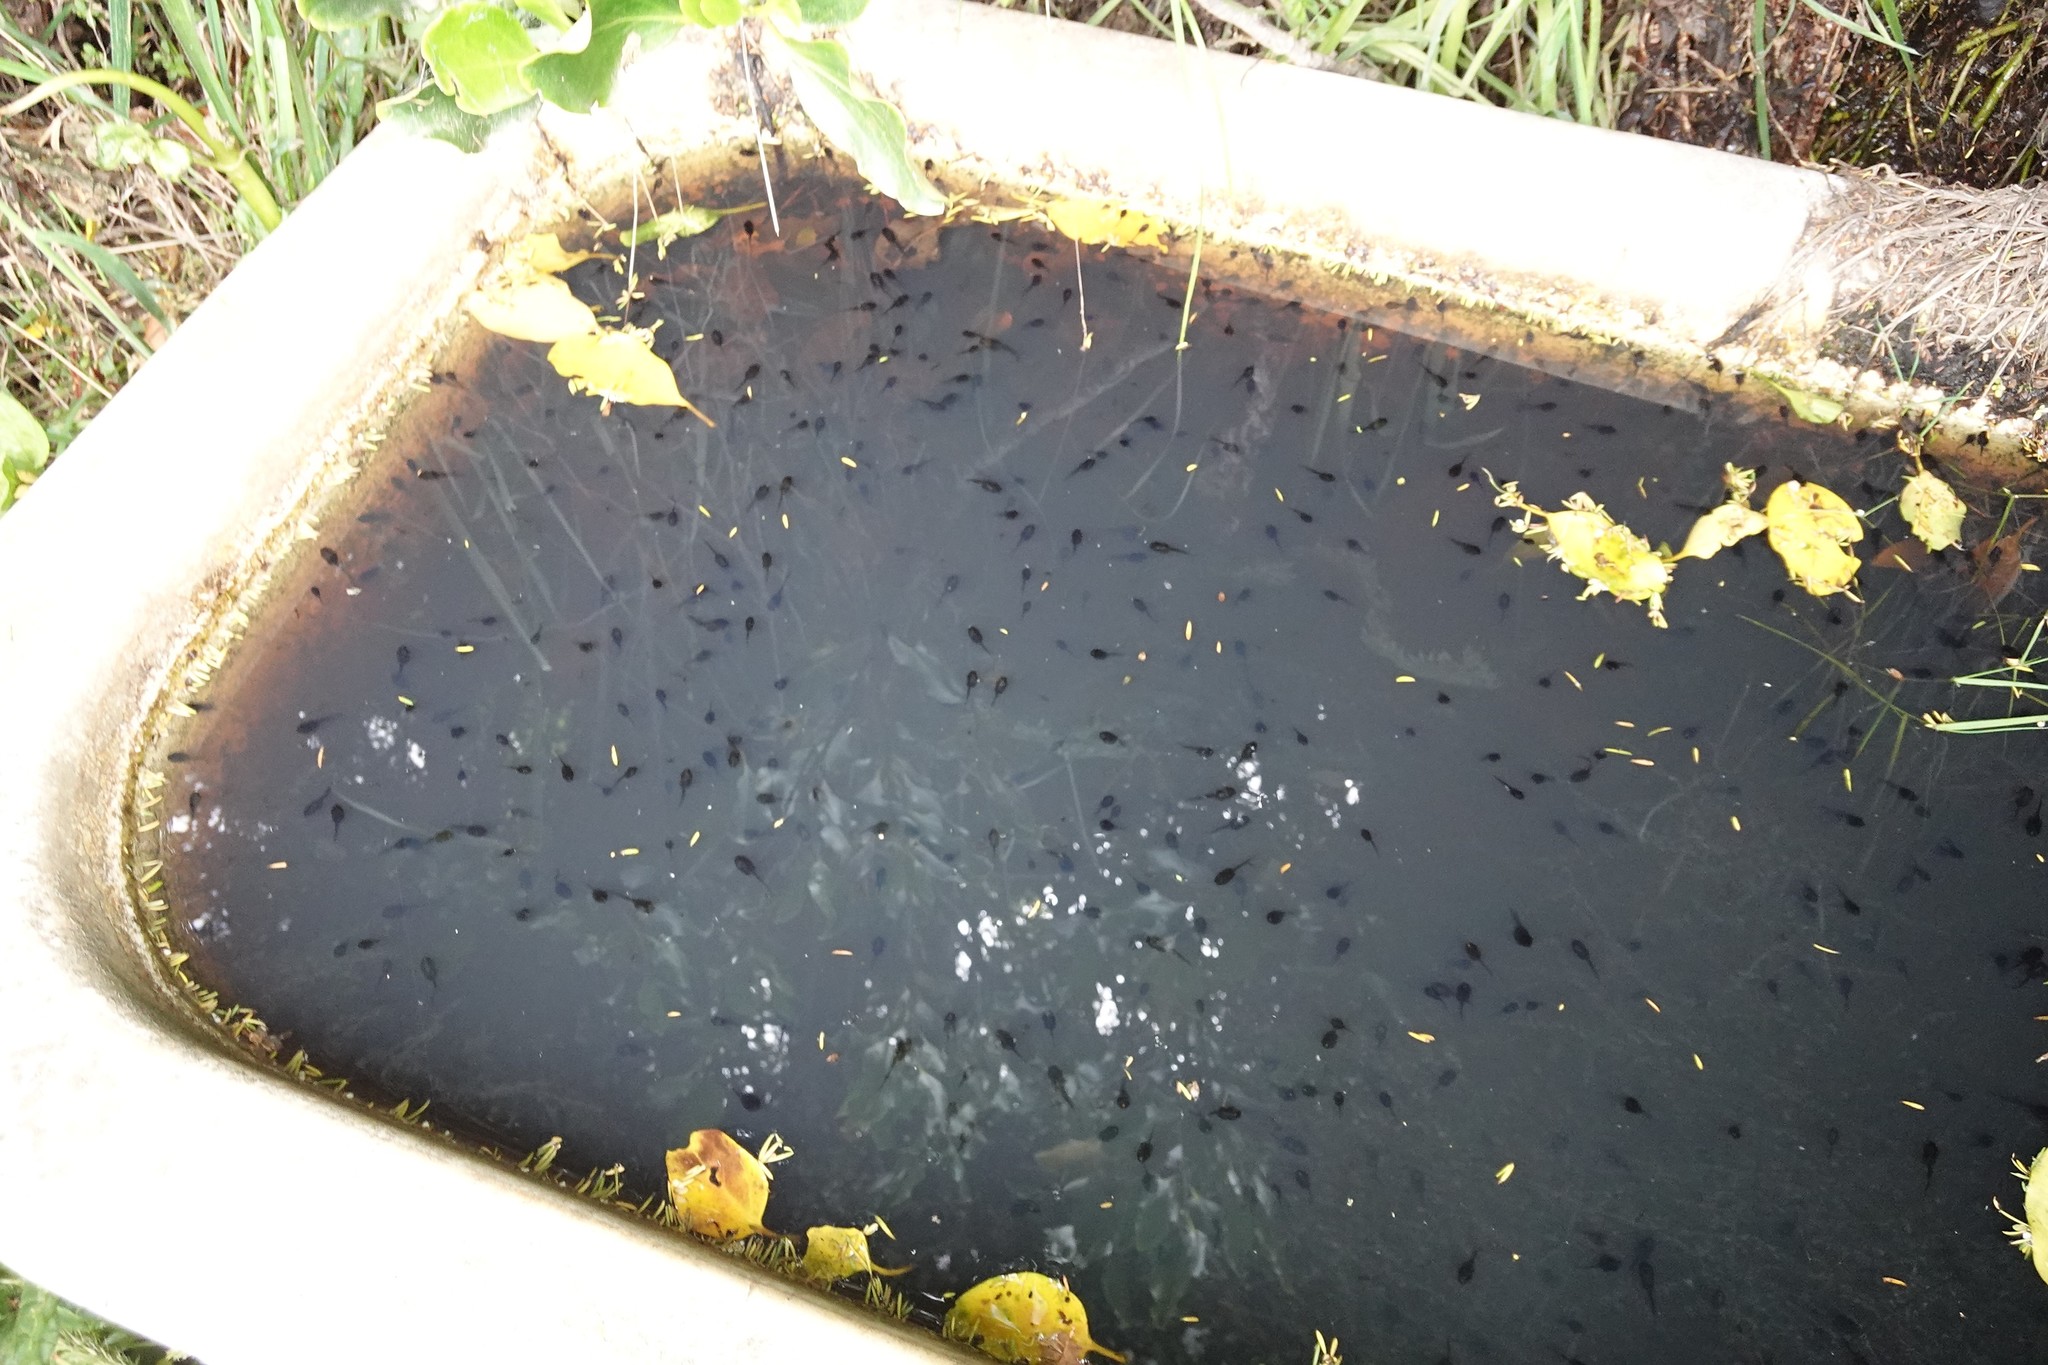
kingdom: Animalia
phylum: Chordata
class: Amphibia
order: Anura
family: Pelodryadidae
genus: Litoria
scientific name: Litoria ewingii
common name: Southern brown tree frog
